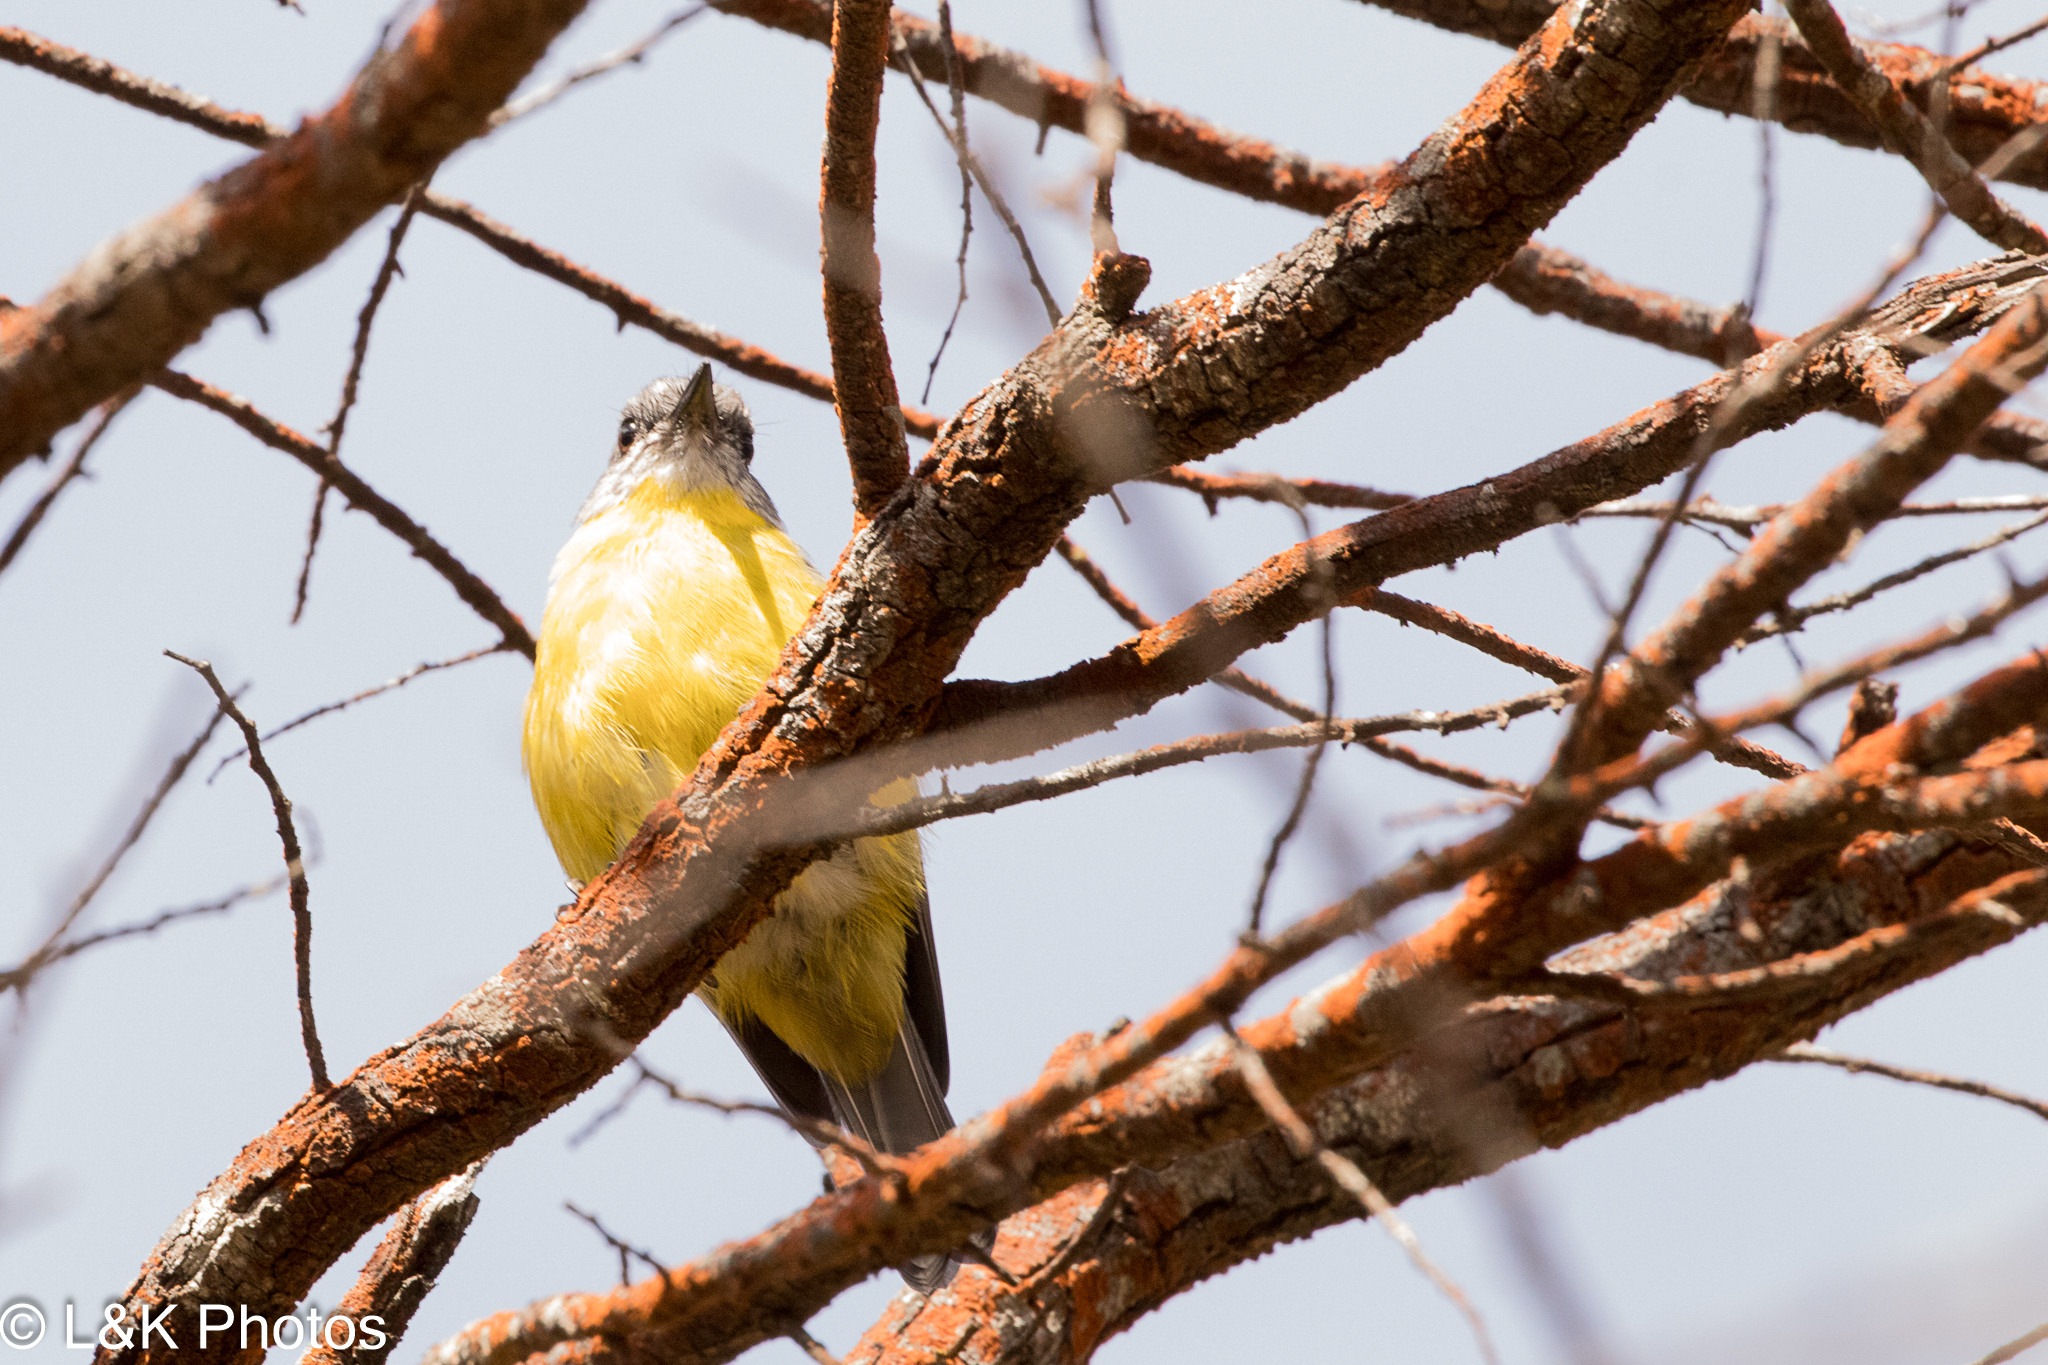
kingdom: Animalia
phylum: Chordata
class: Aves
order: Passeriformes
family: Petroicidae
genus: Eopsaltria
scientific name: Eopsaltria australis
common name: Eastern yellow robin
